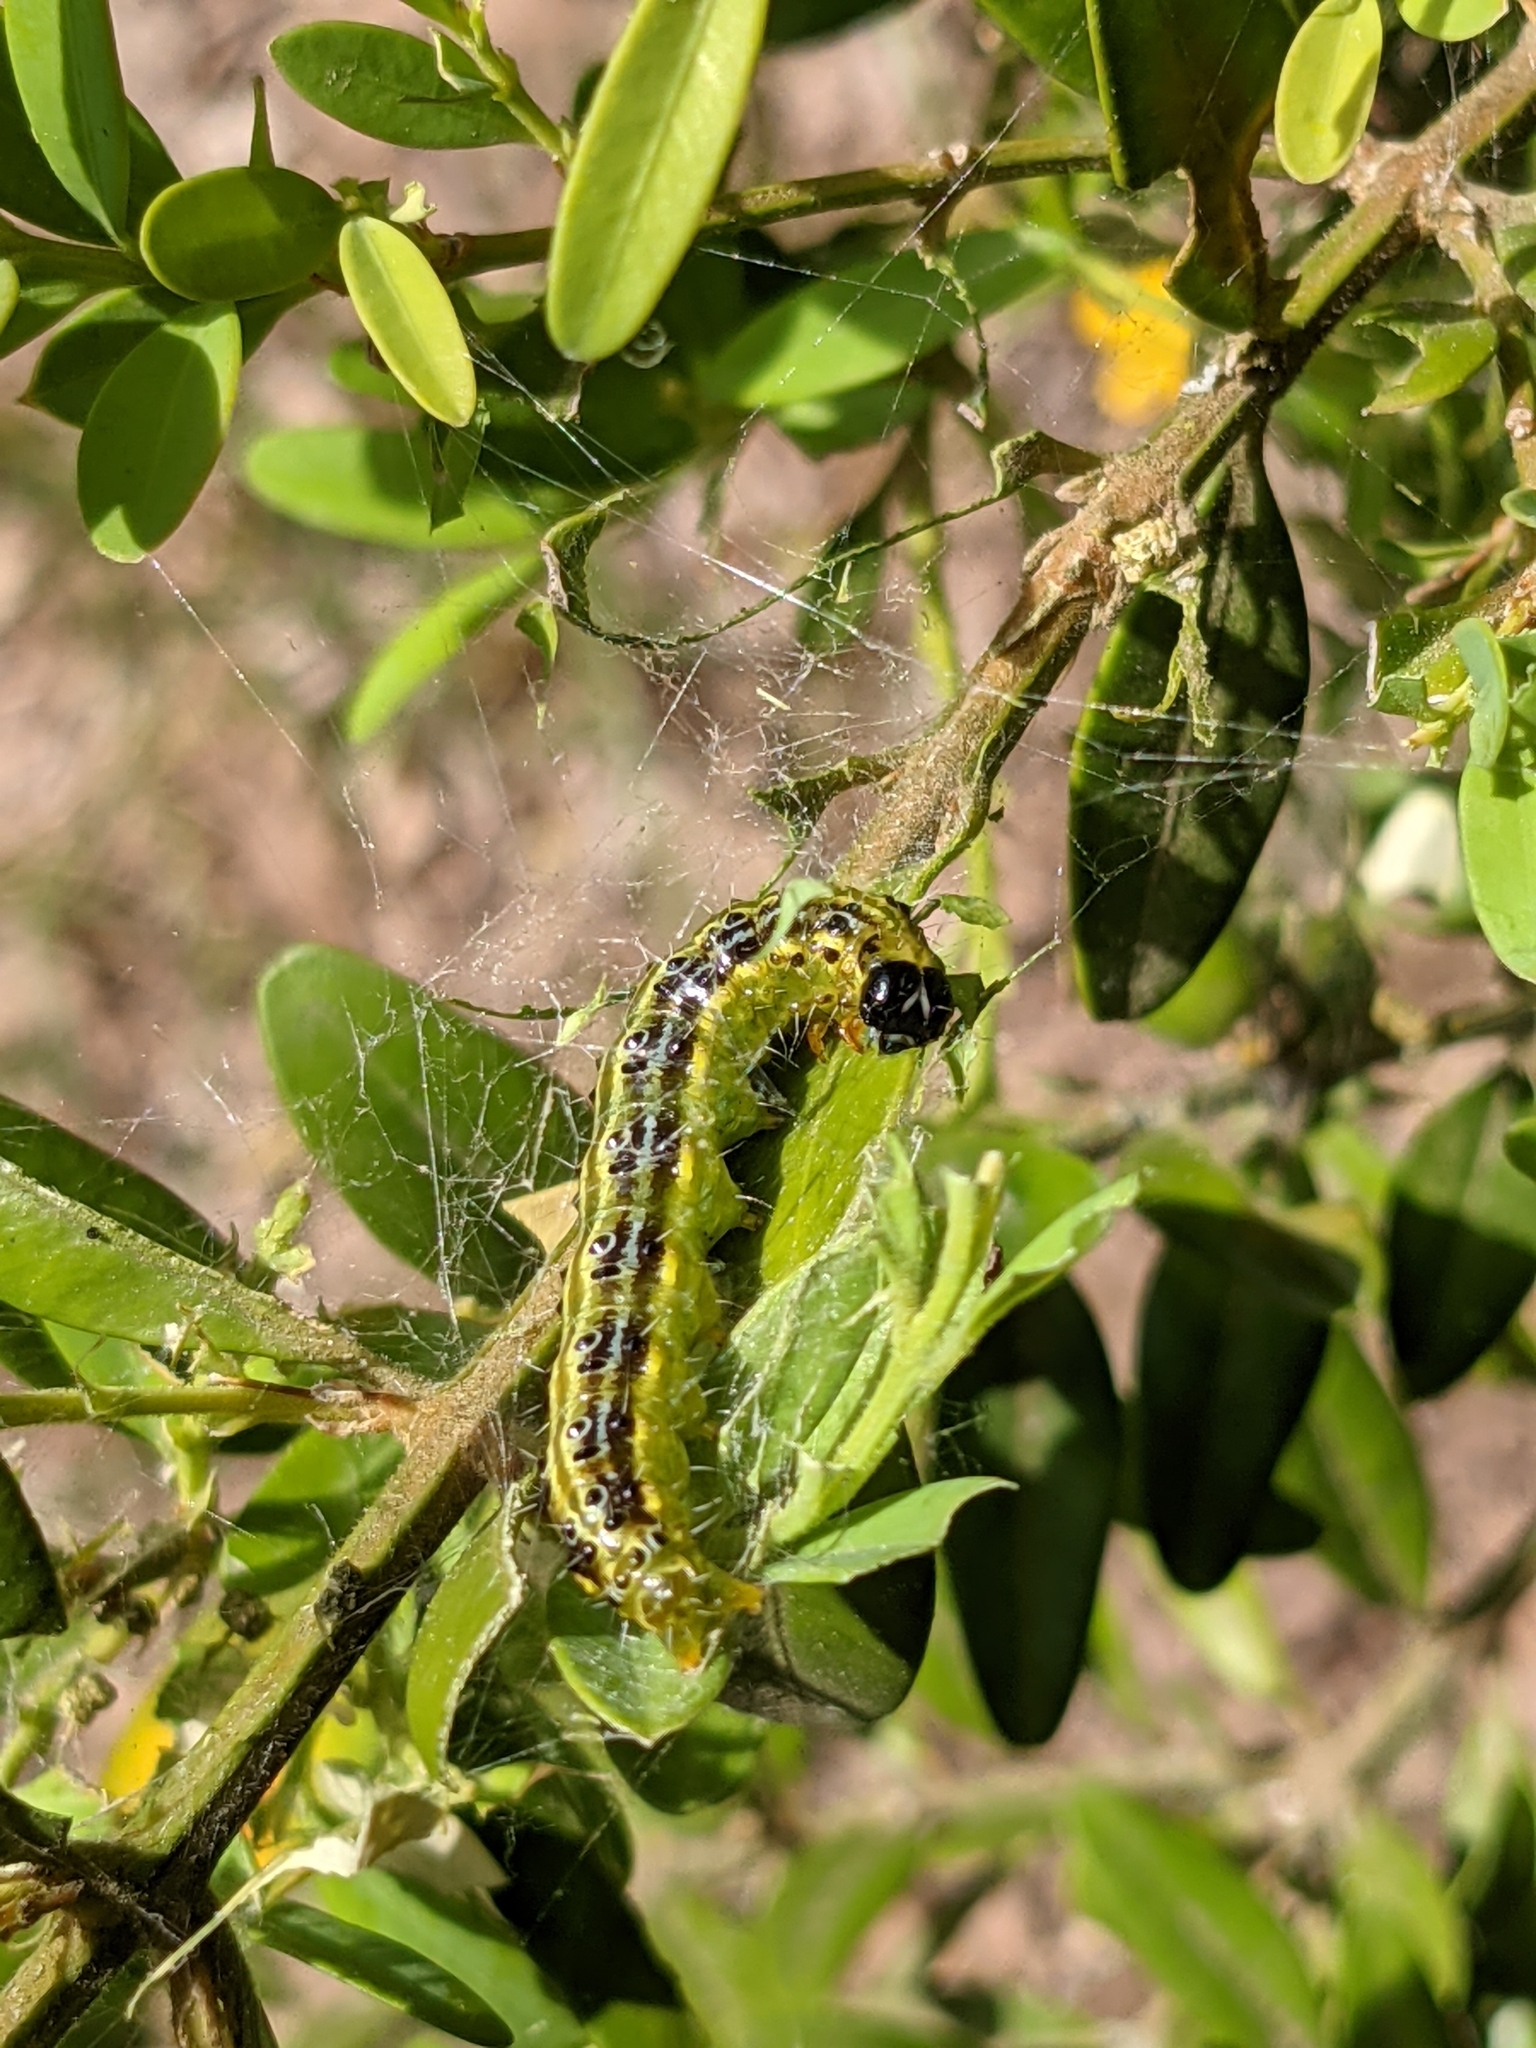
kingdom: Animalia
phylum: Arthropoda
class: Insecta
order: Lepidoptera
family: Crambidae
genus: Cydalima
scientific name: Cydalima perspectalis
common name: Box tree moth
